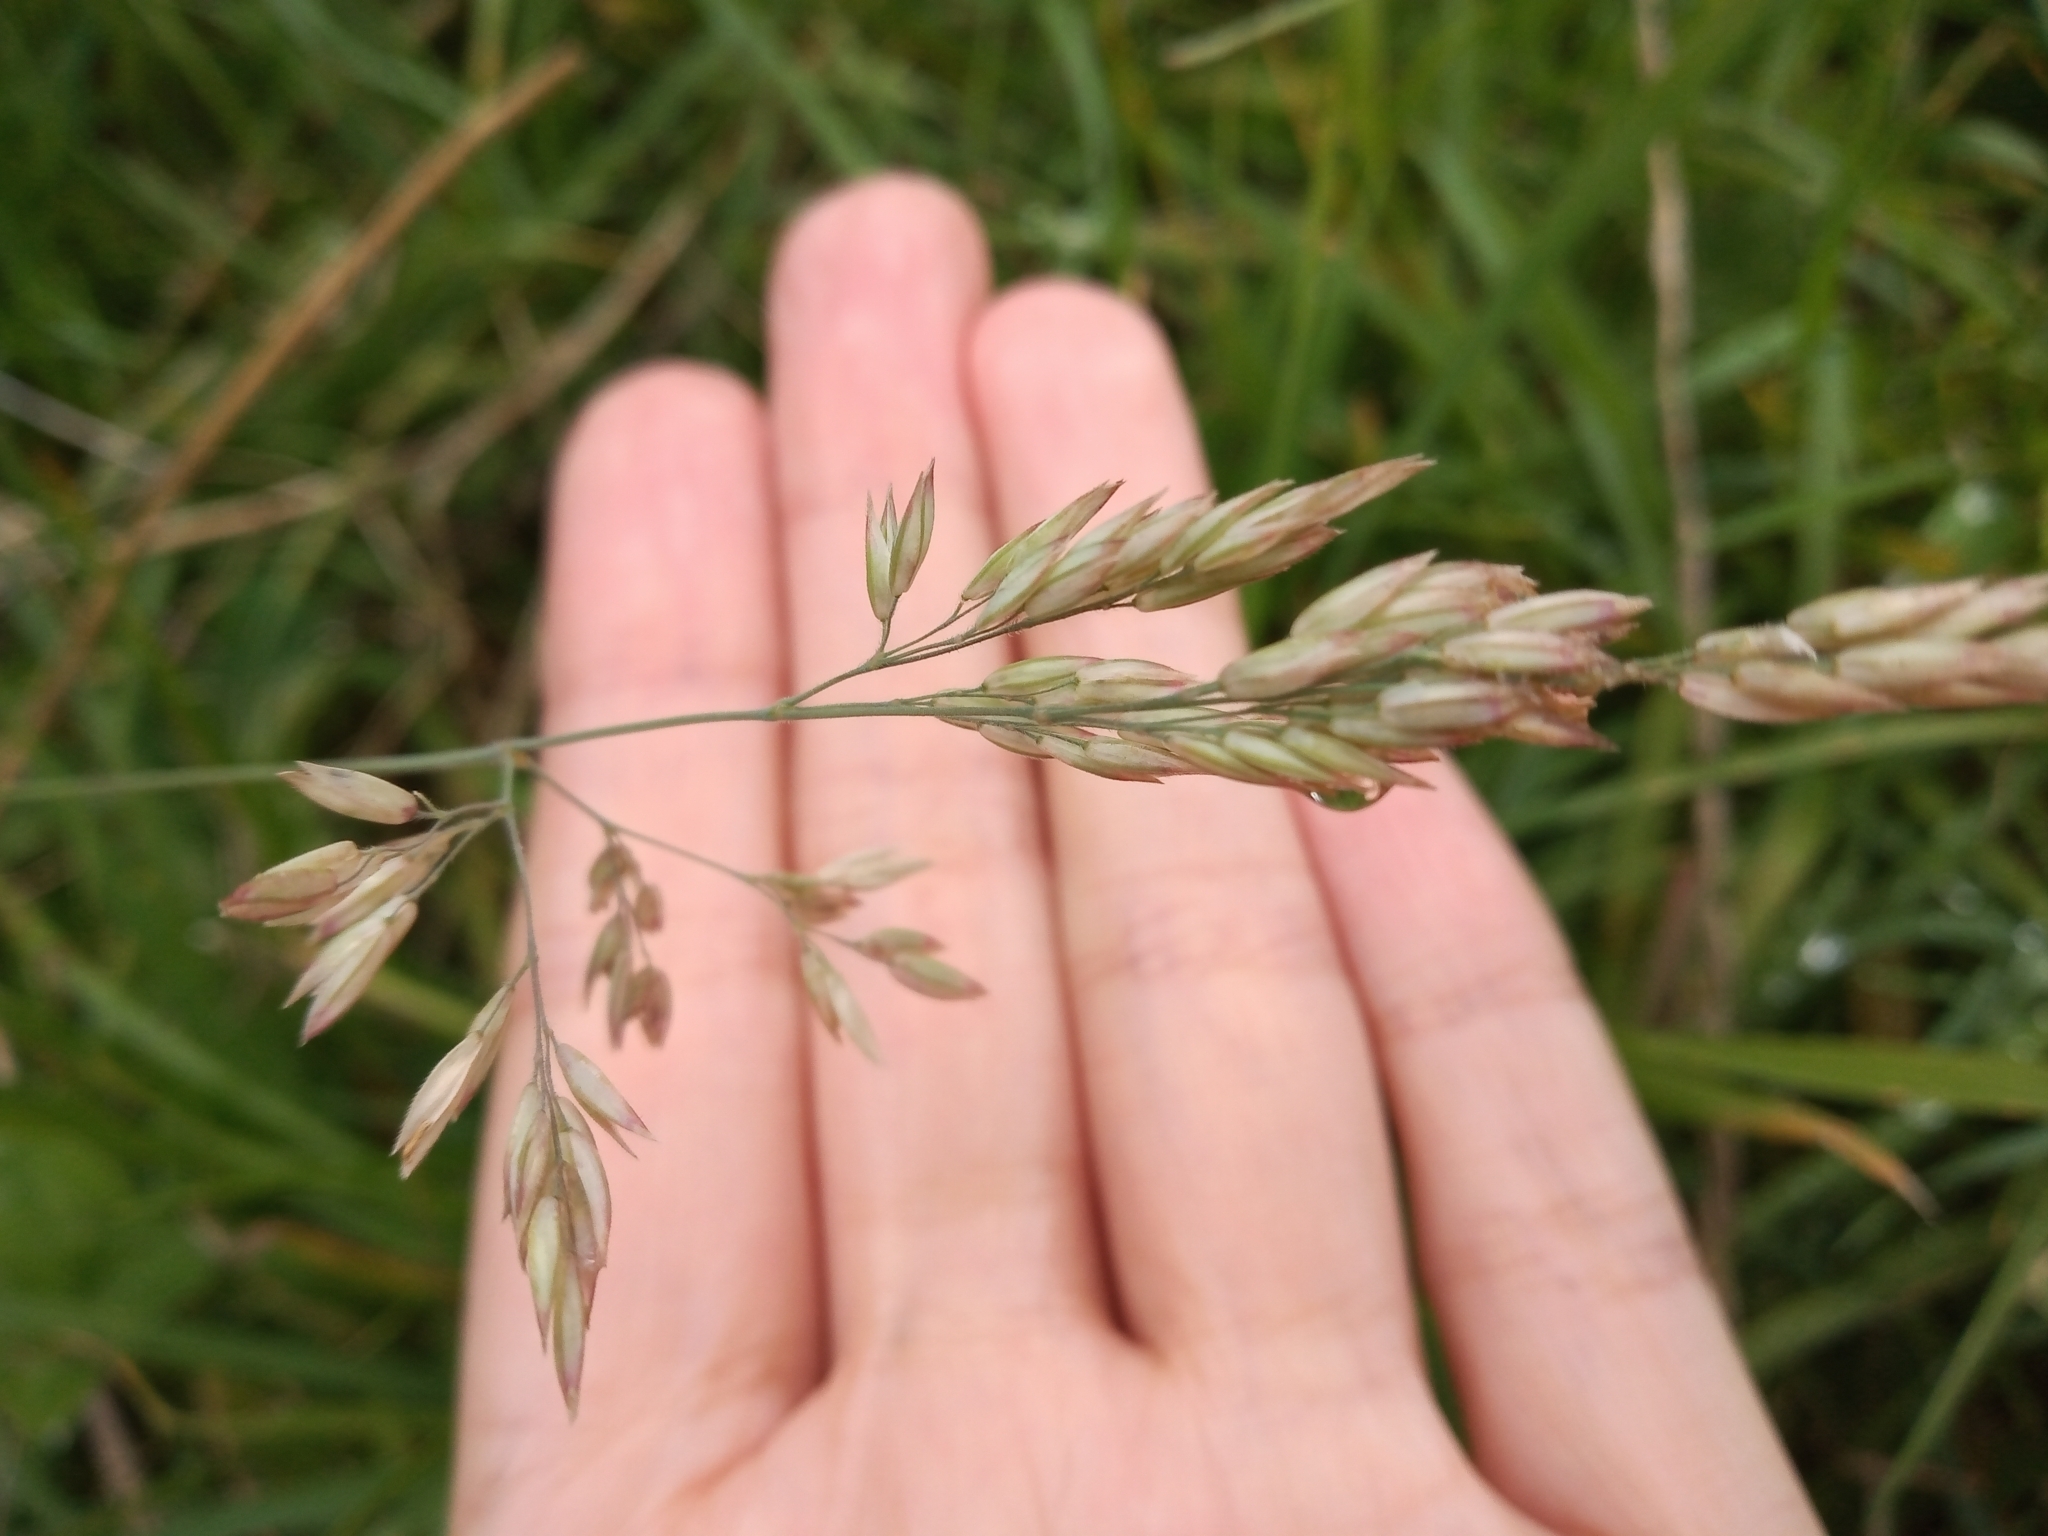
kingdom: Plantae
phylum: Tracheophyta
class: Liliopsida
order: Poales
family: Poaceae
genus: Holcus
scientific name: Holcus lanatus
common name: Yorkshire-fog
